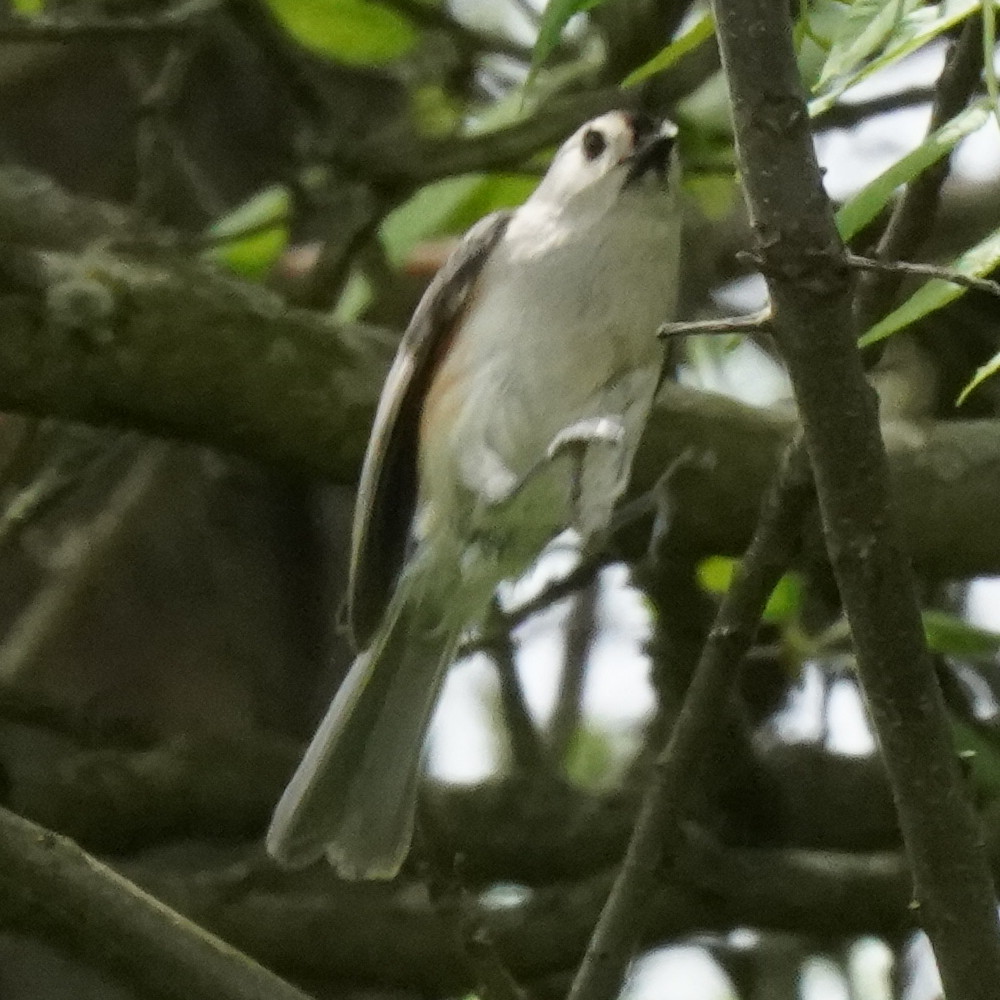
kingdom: Animalia
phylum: Chordata
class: Aves
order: Passeriformes
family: Paridae
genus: Baeolophus
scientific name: Baeolophus bicolor
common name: Tufted titmouse
